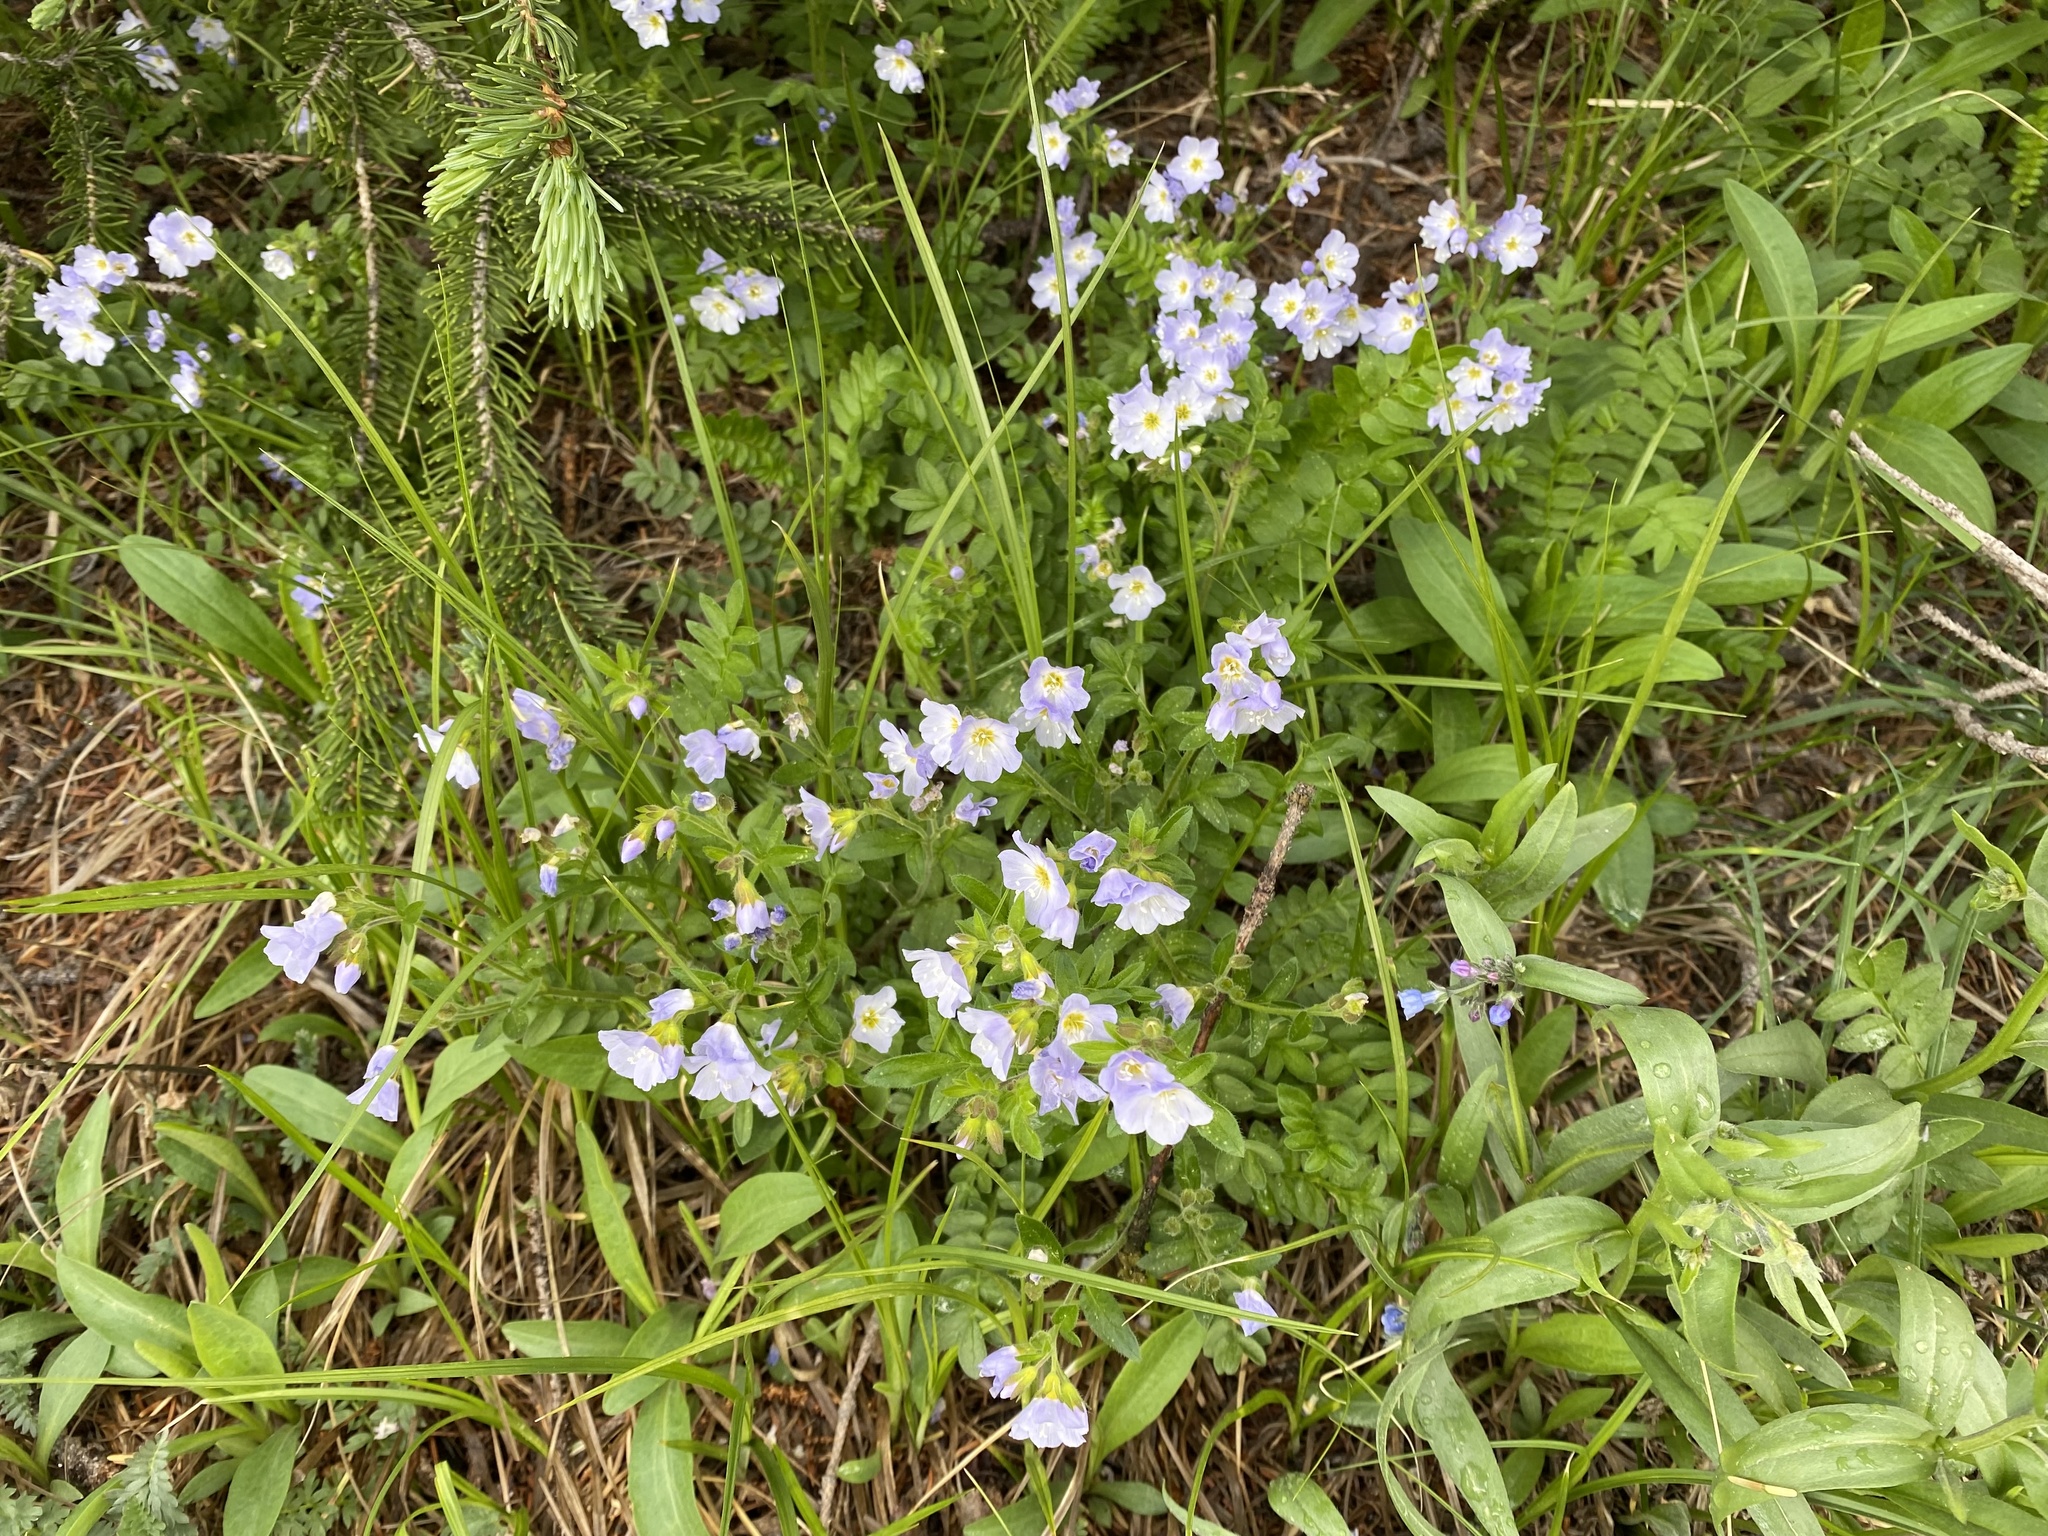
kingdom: Plantae
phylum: Tracheophyta
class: Magnoliopsida
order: Ericales
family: Polemoniaceae
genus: Polemonium
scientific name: Polemonium pulcherrimum
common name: Short jacob's-ladder
